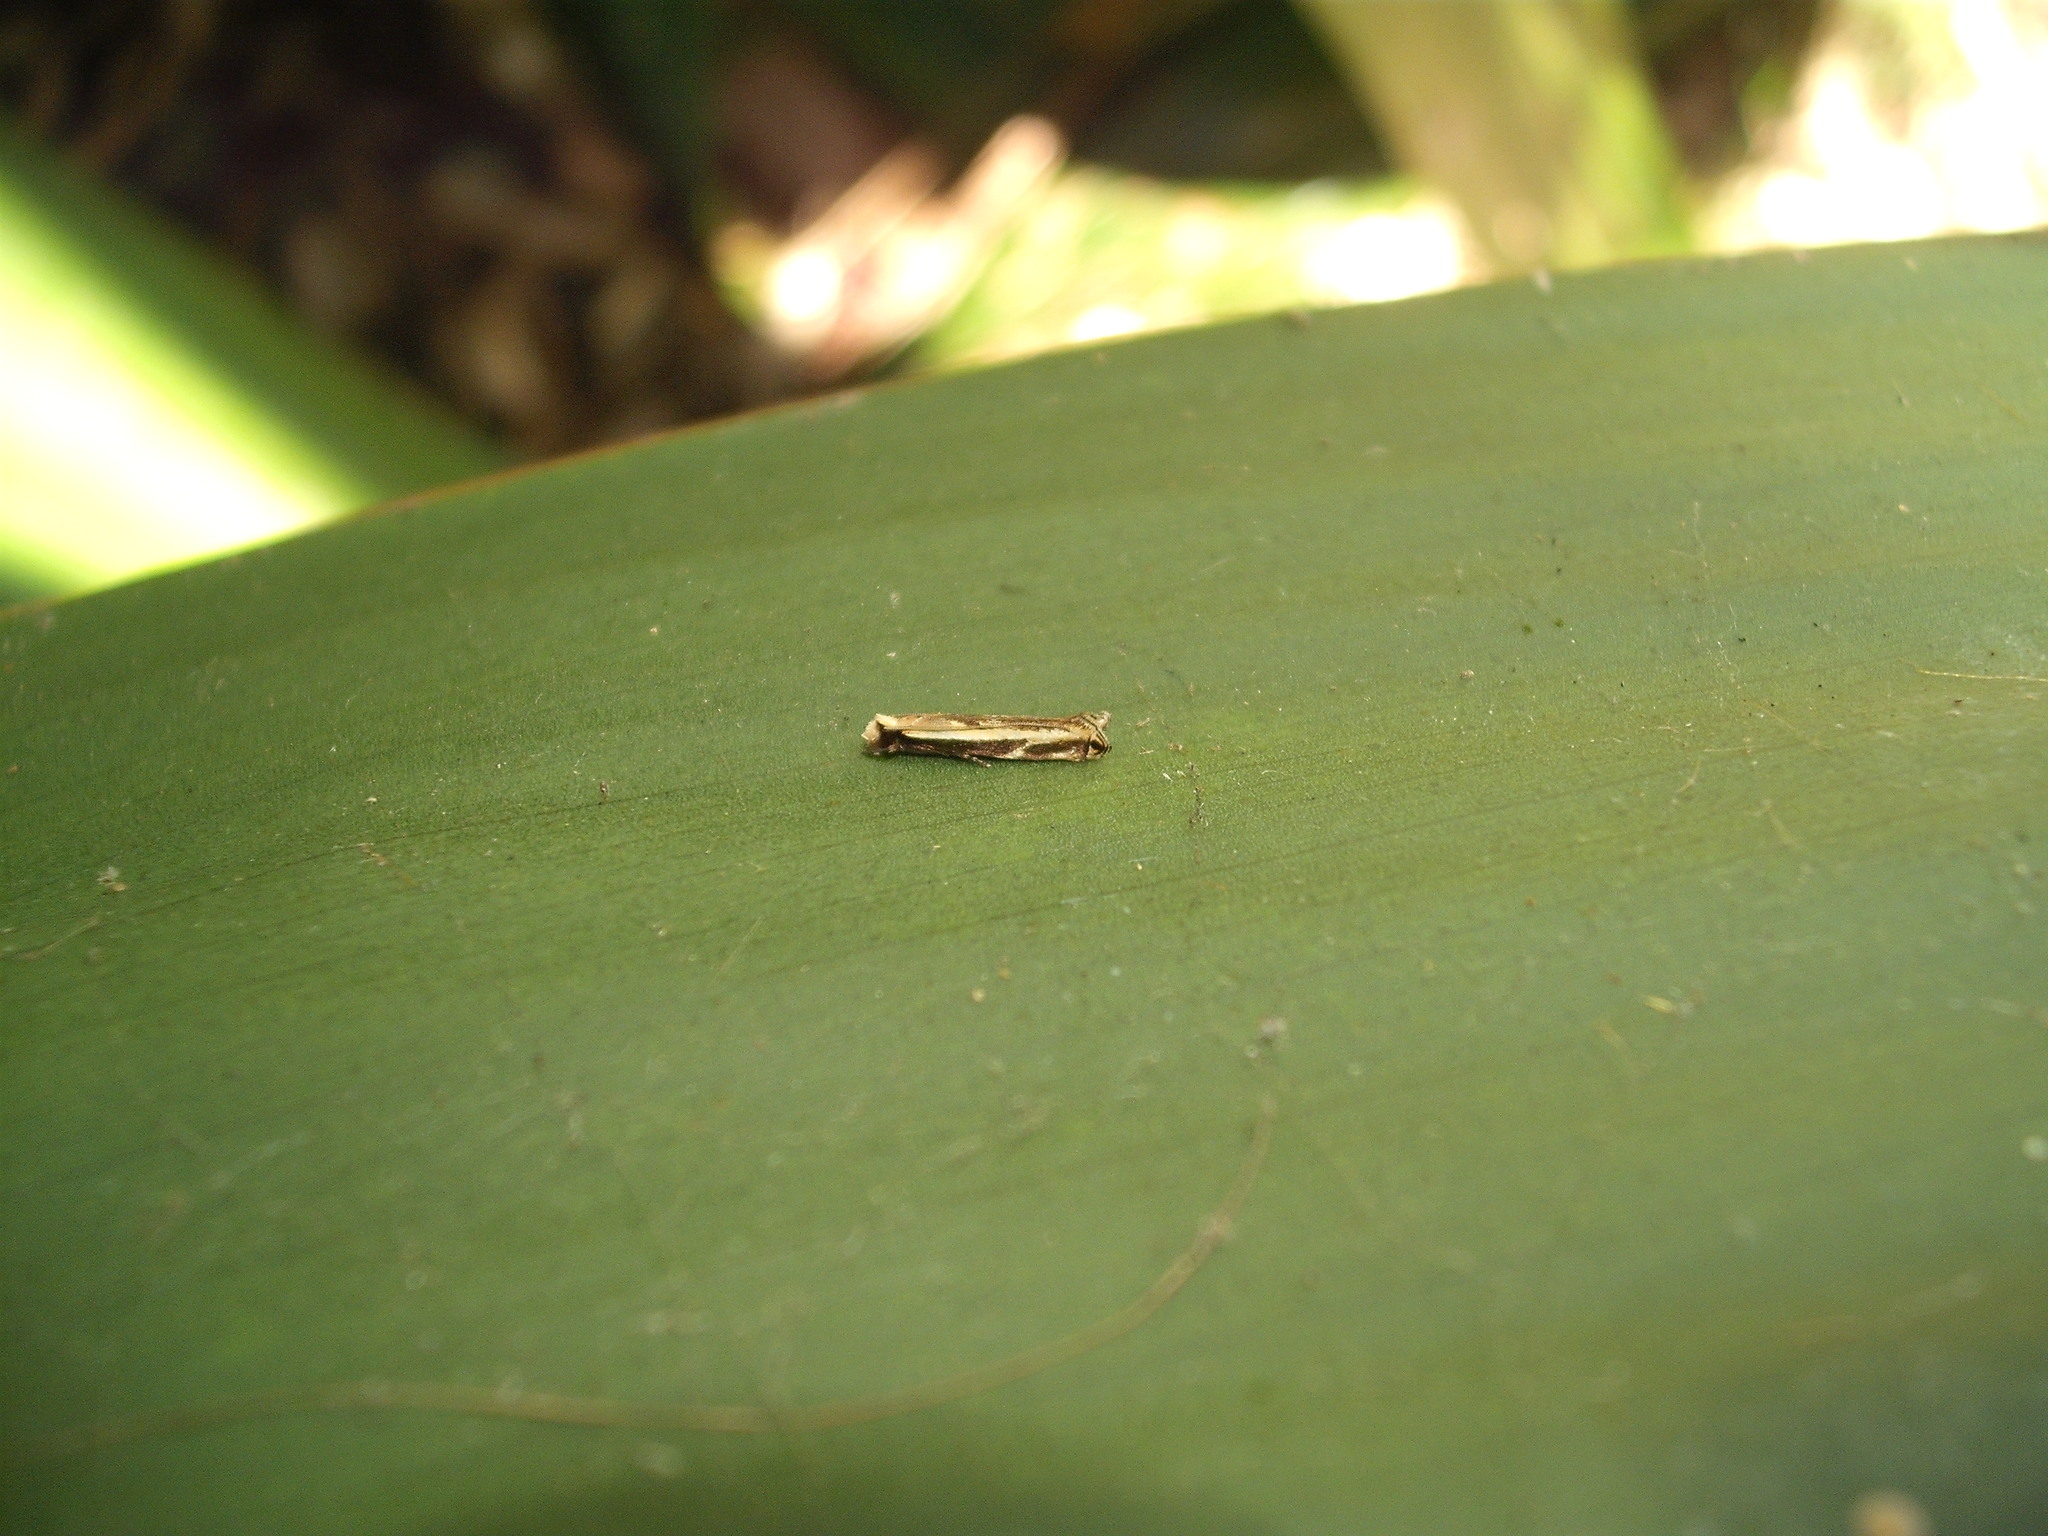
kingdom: Animalia
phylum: Arthropoda
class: Insecta
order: Lepidoptera
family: Tineidae
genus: Erechthias
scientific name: Erechthias terminella
